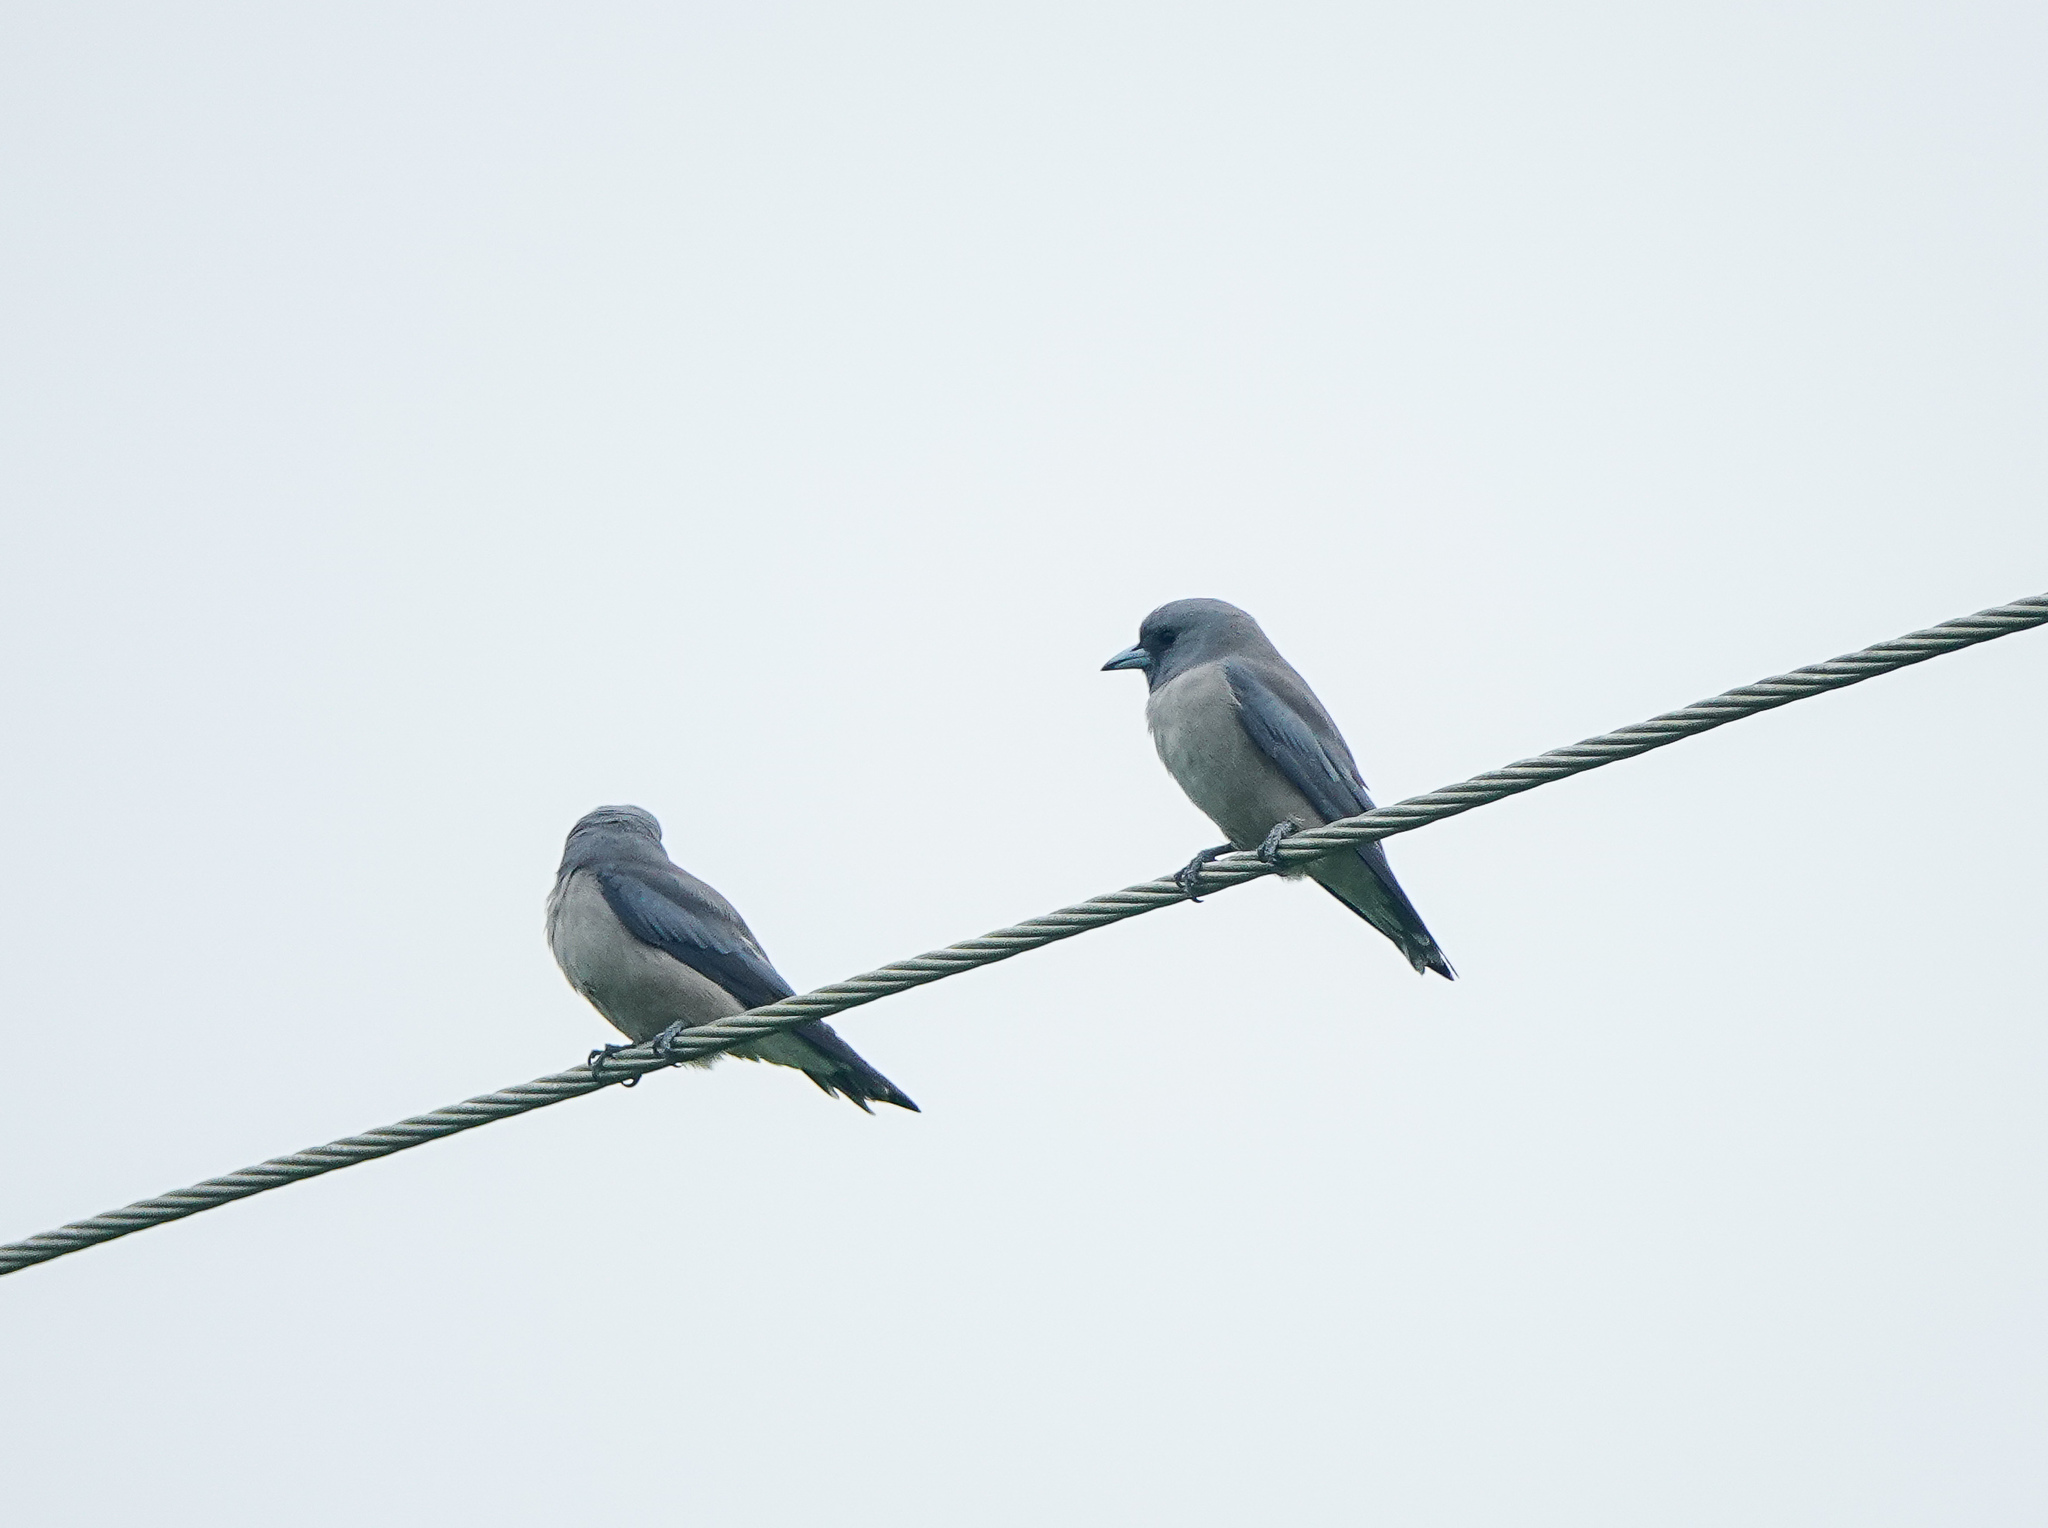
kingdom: Animalia
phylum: Chordata
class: Aves
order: Passeriformes
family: Artamidae
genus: Artamus
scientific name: Artamus fuscus
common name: Ashy woodswallow
